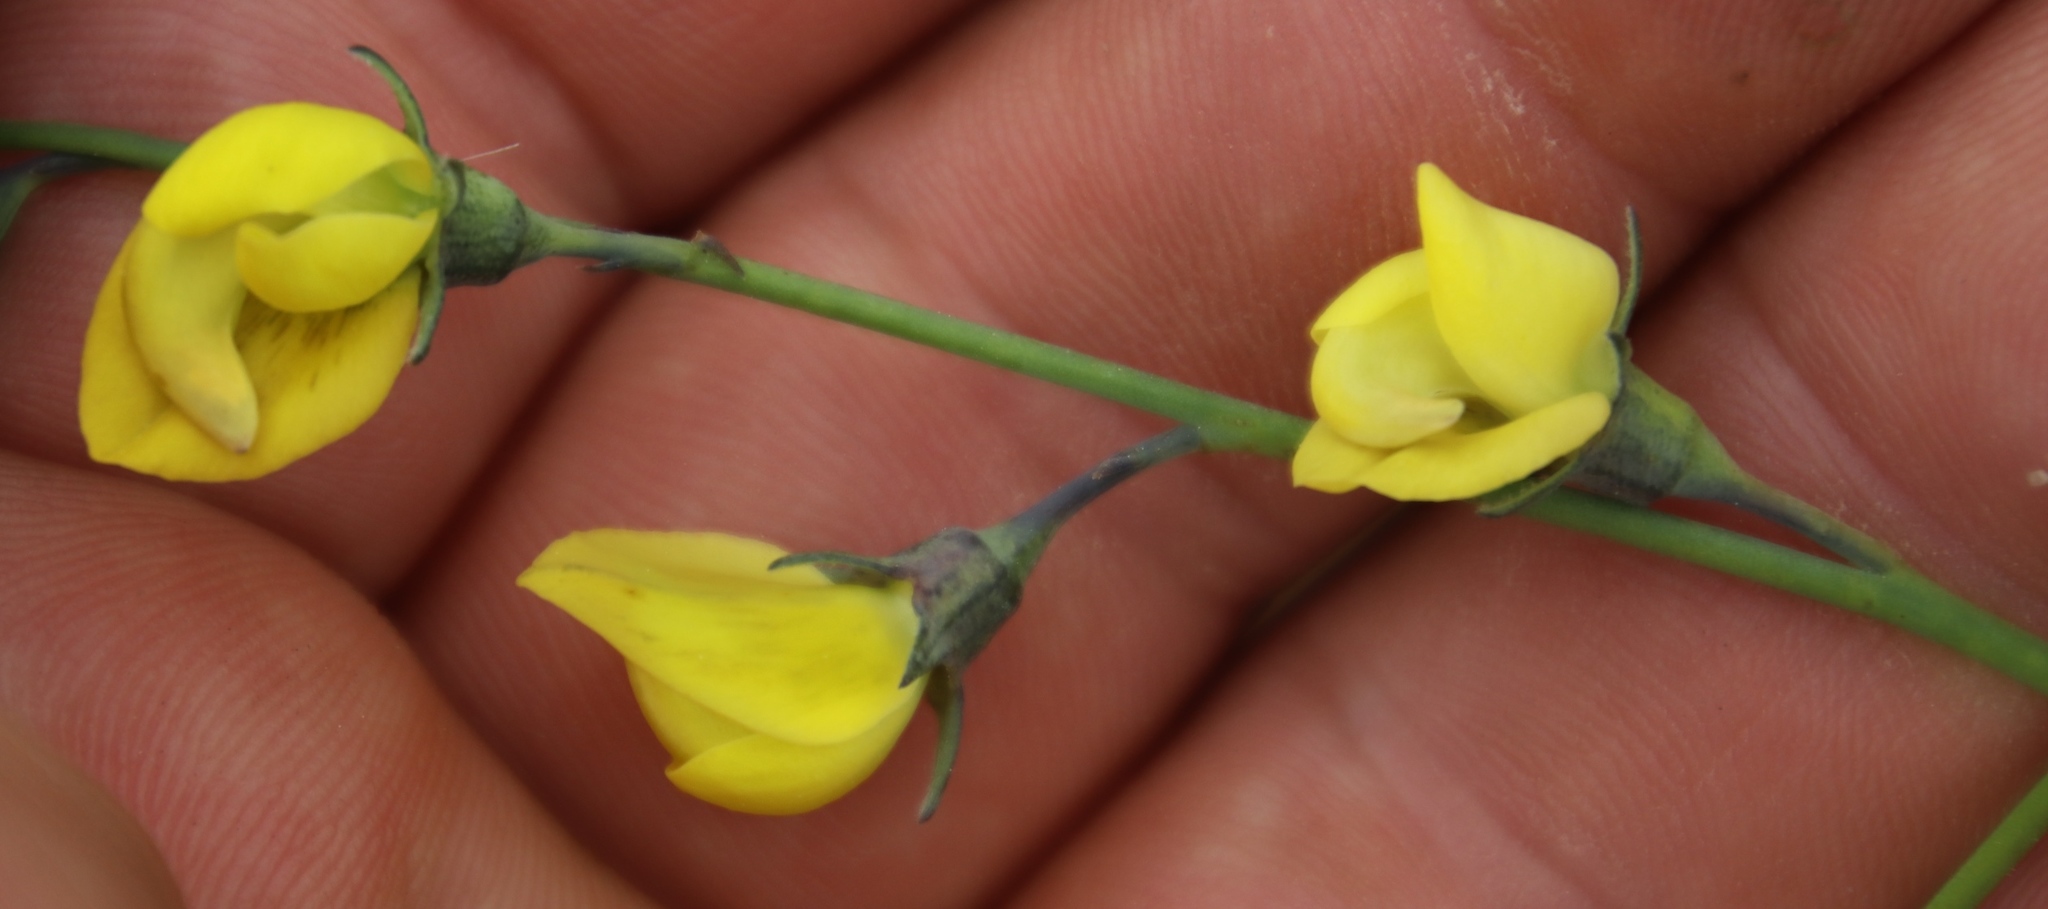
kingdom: Plantae
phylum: Tracheophyta
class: Magnoliopsida
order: Fabales
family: Fabaceae
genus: Lebeckia
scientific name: Lebeckia pauciflora
